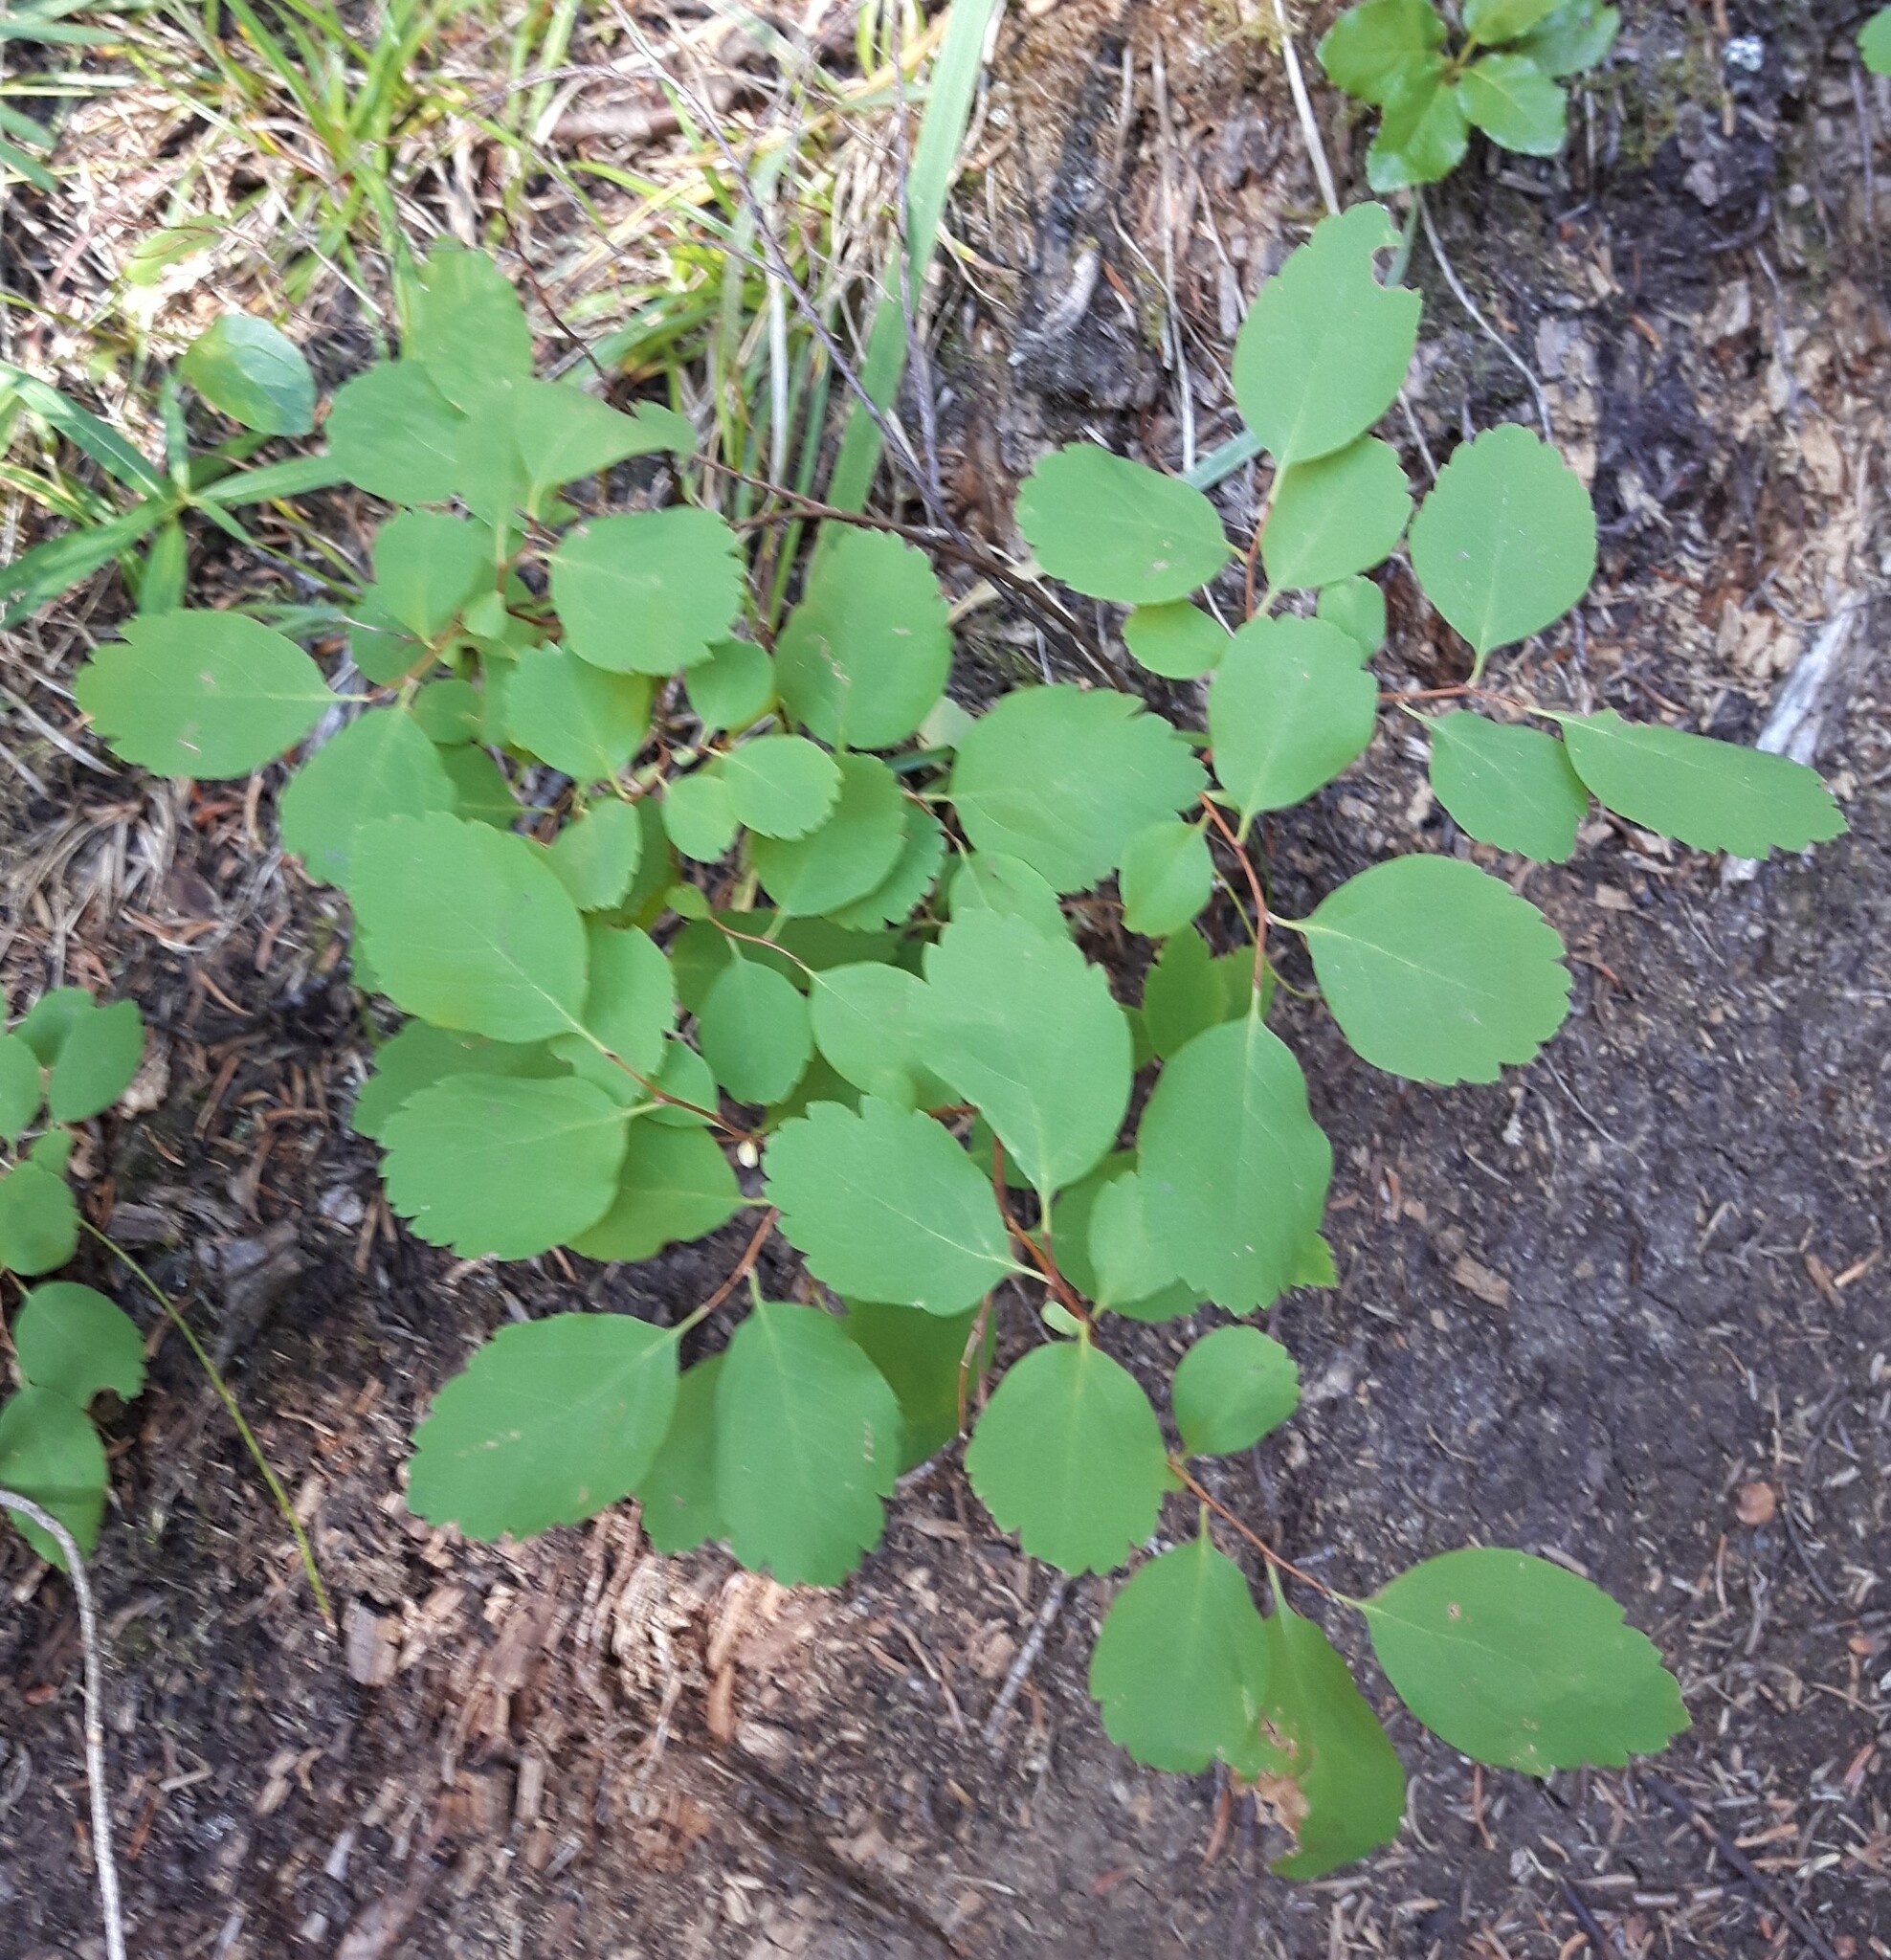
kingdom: Plantae
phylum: Tracheophyta
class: Magnoliopsida
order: Rosales
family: Rosaceae
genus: Spiraea
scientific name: Spiraea lucida
